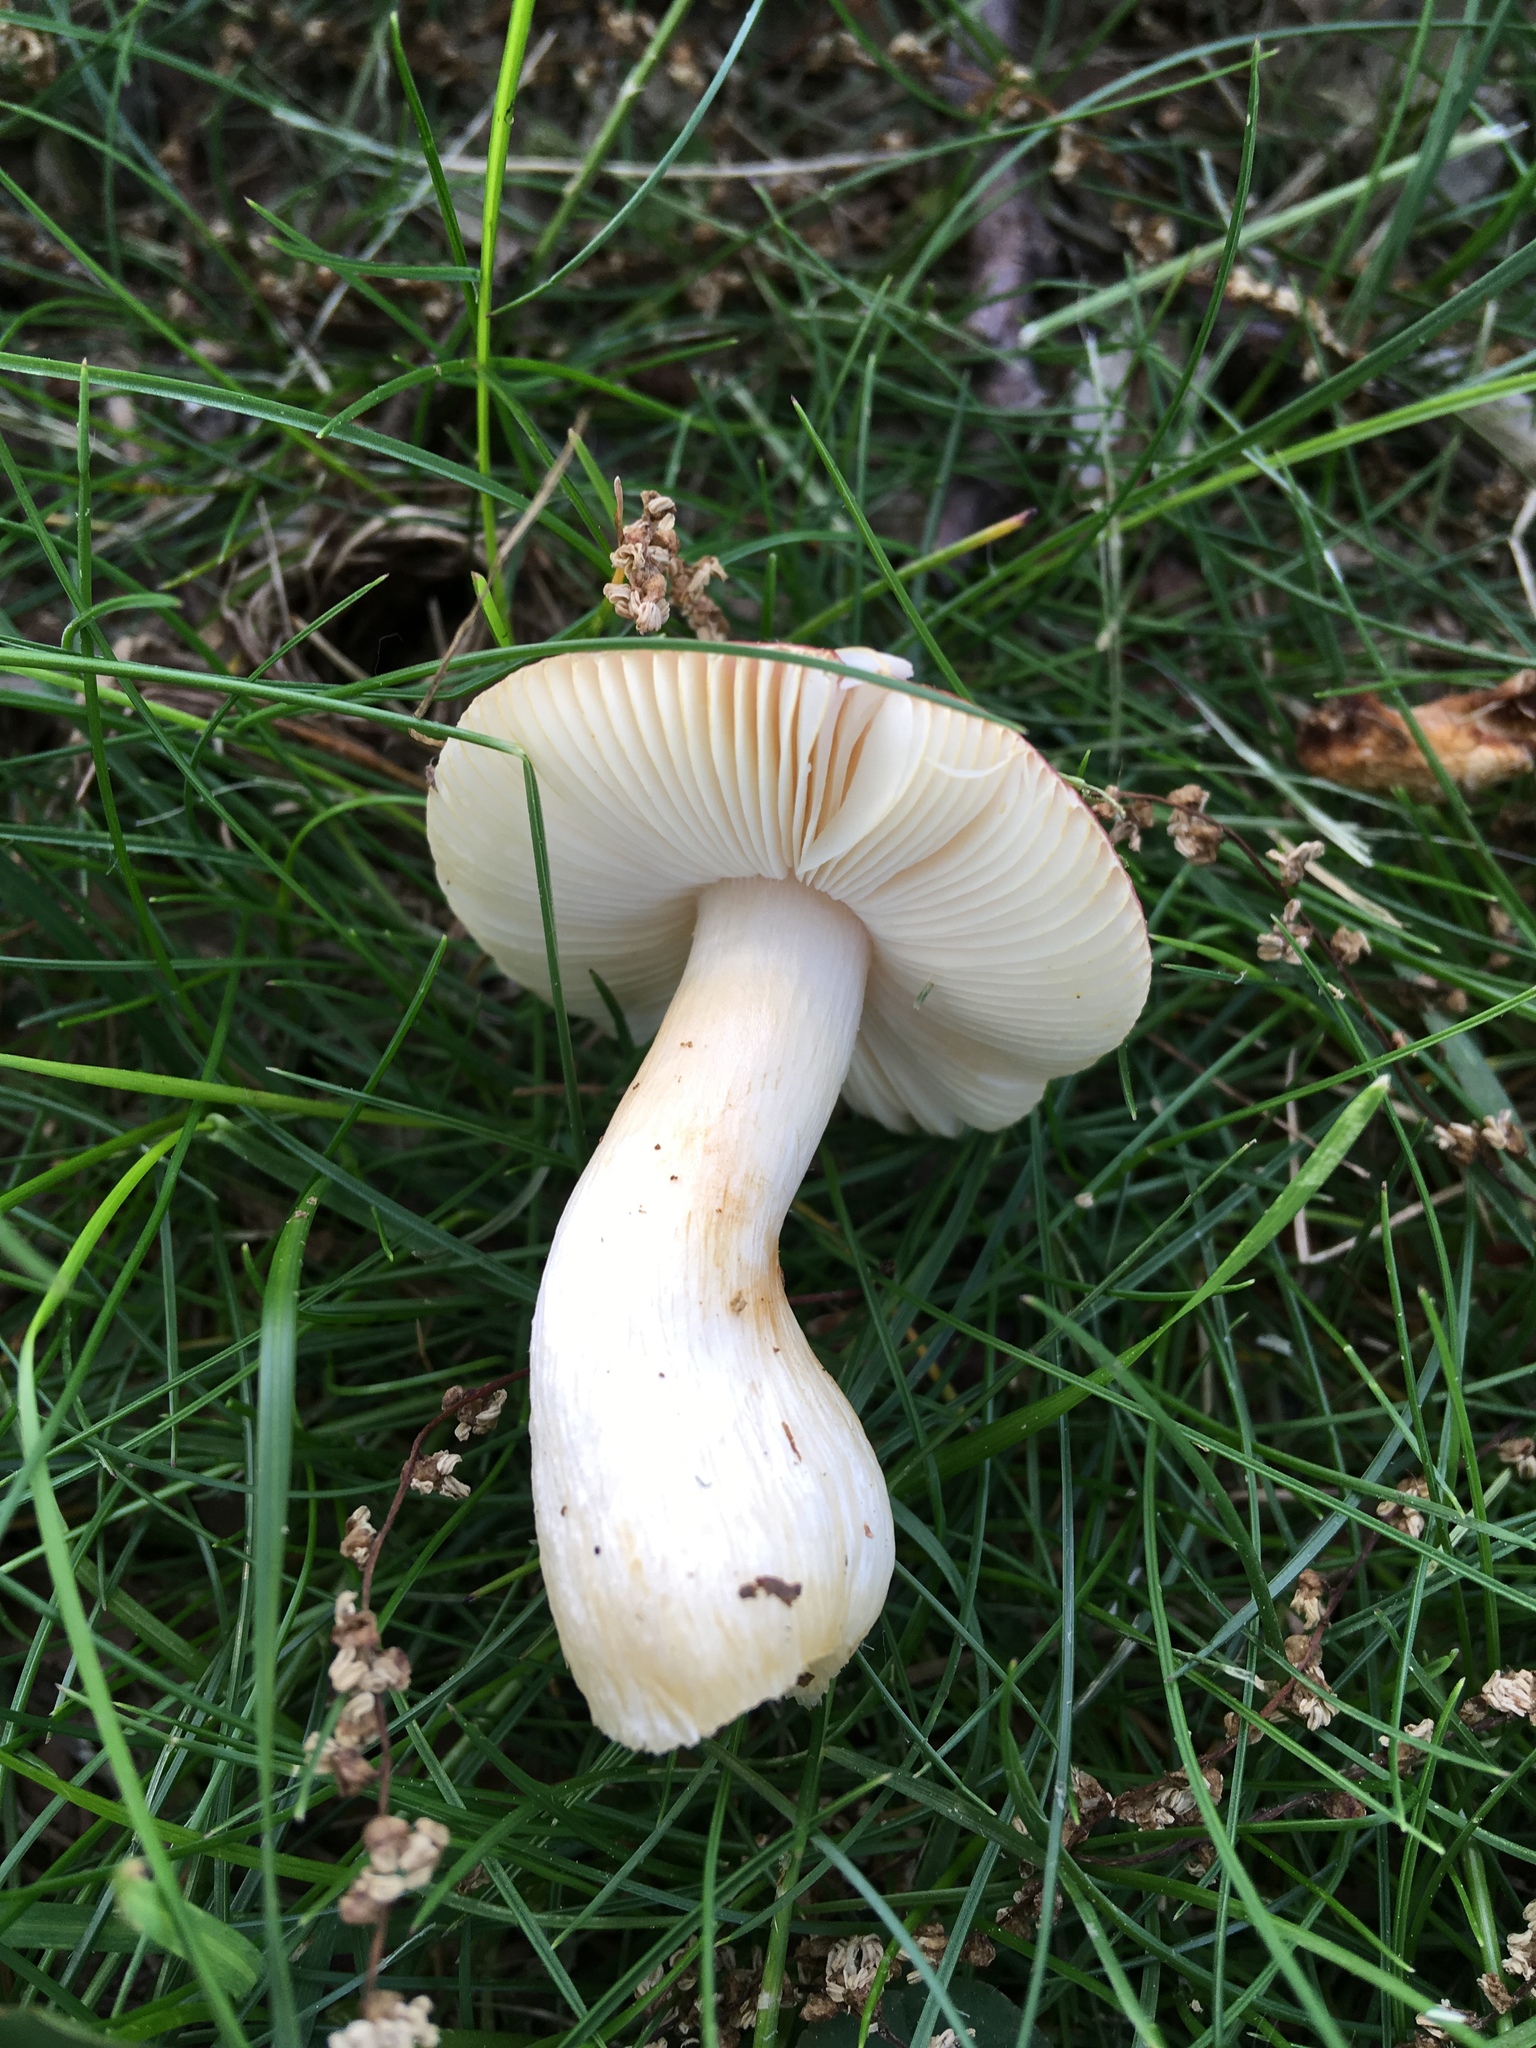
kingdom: Fungi
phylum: Basidiomycota
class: Agaricomycetes
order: Russulales
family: Russulaceae
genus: Russula
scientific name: Russula vinacea
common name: Blackish-red russula
